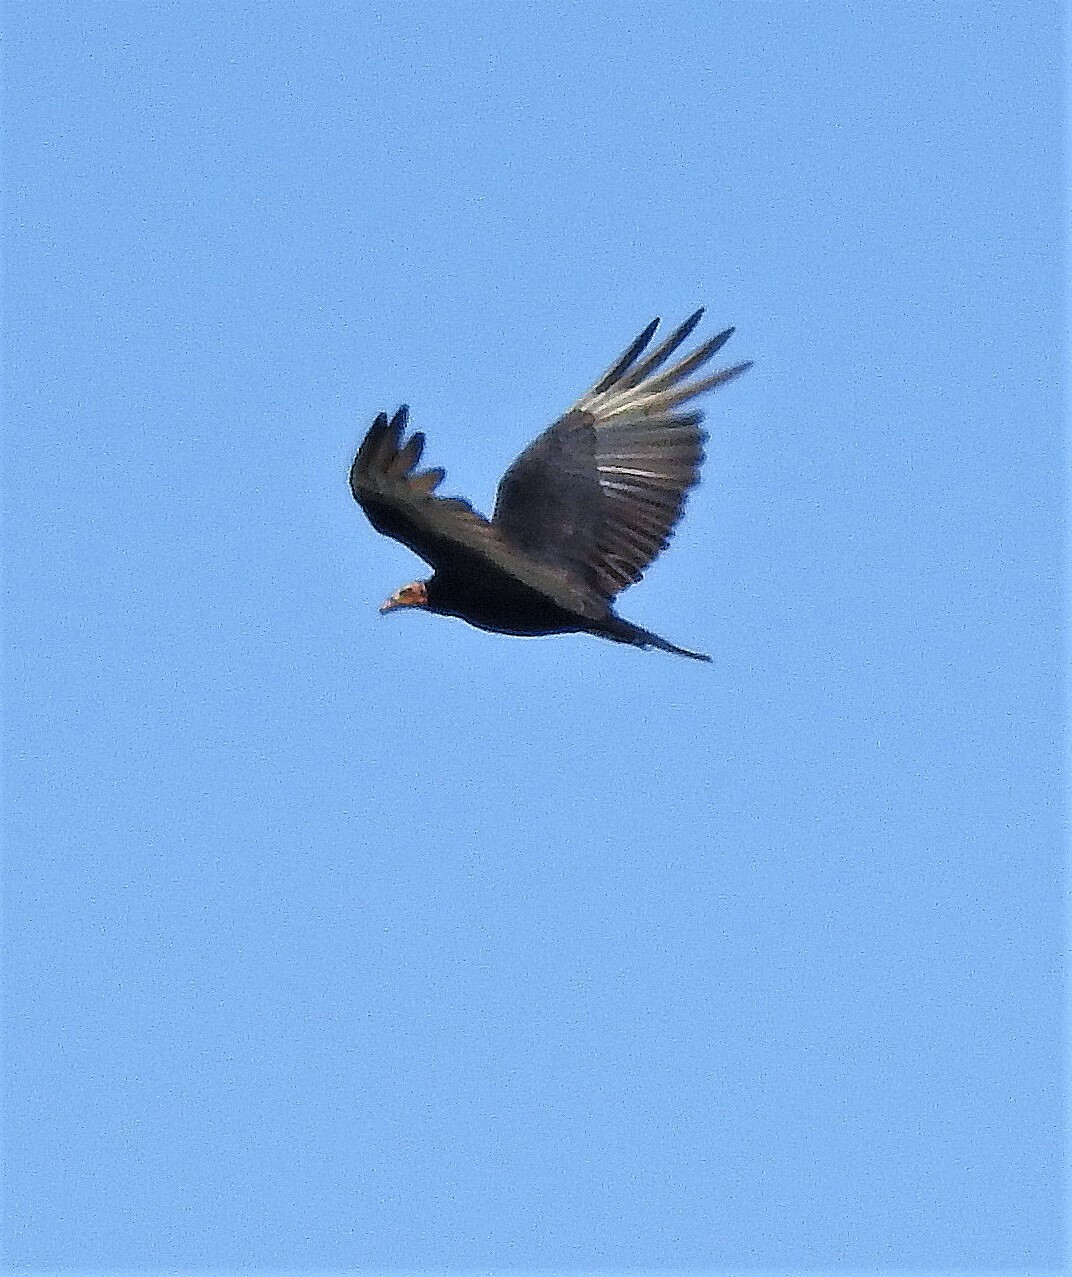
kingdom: Animalia
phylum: Chordata
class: Aves
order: Accipitriformes
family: Cathartidae
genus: Cathartes
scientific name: Cathartes burrovianus
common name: Lesser yellow-headed vulture
